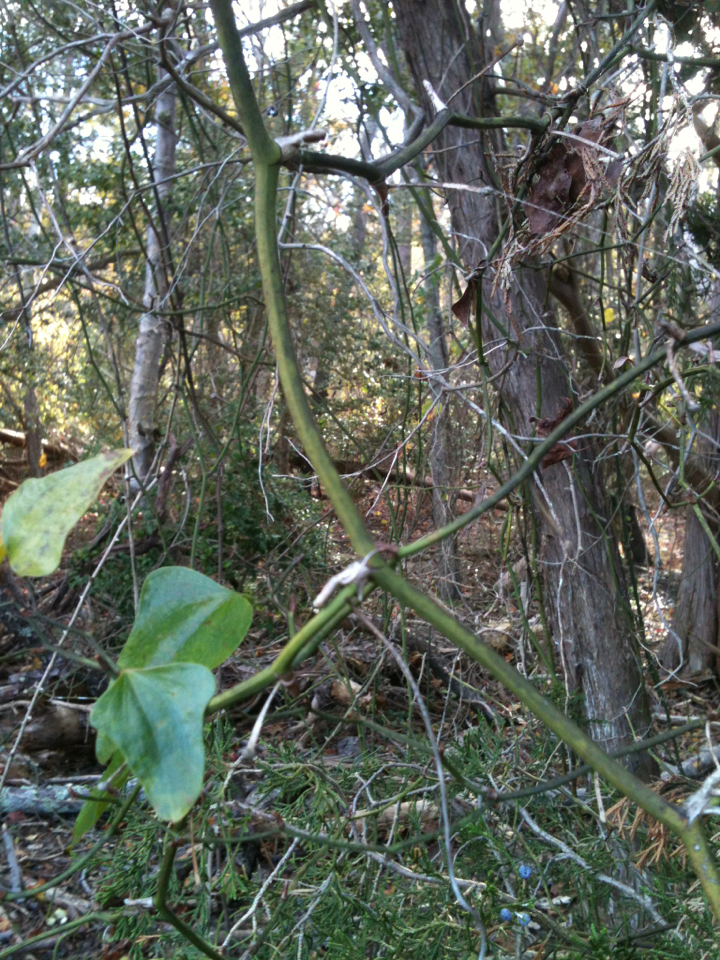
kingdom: Plantae
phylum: Tracheophyta
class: Liliopsida
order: Liliales
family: Smilacaceae
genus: Smilax
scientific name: Smilax bona-nox
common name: Catbrier
